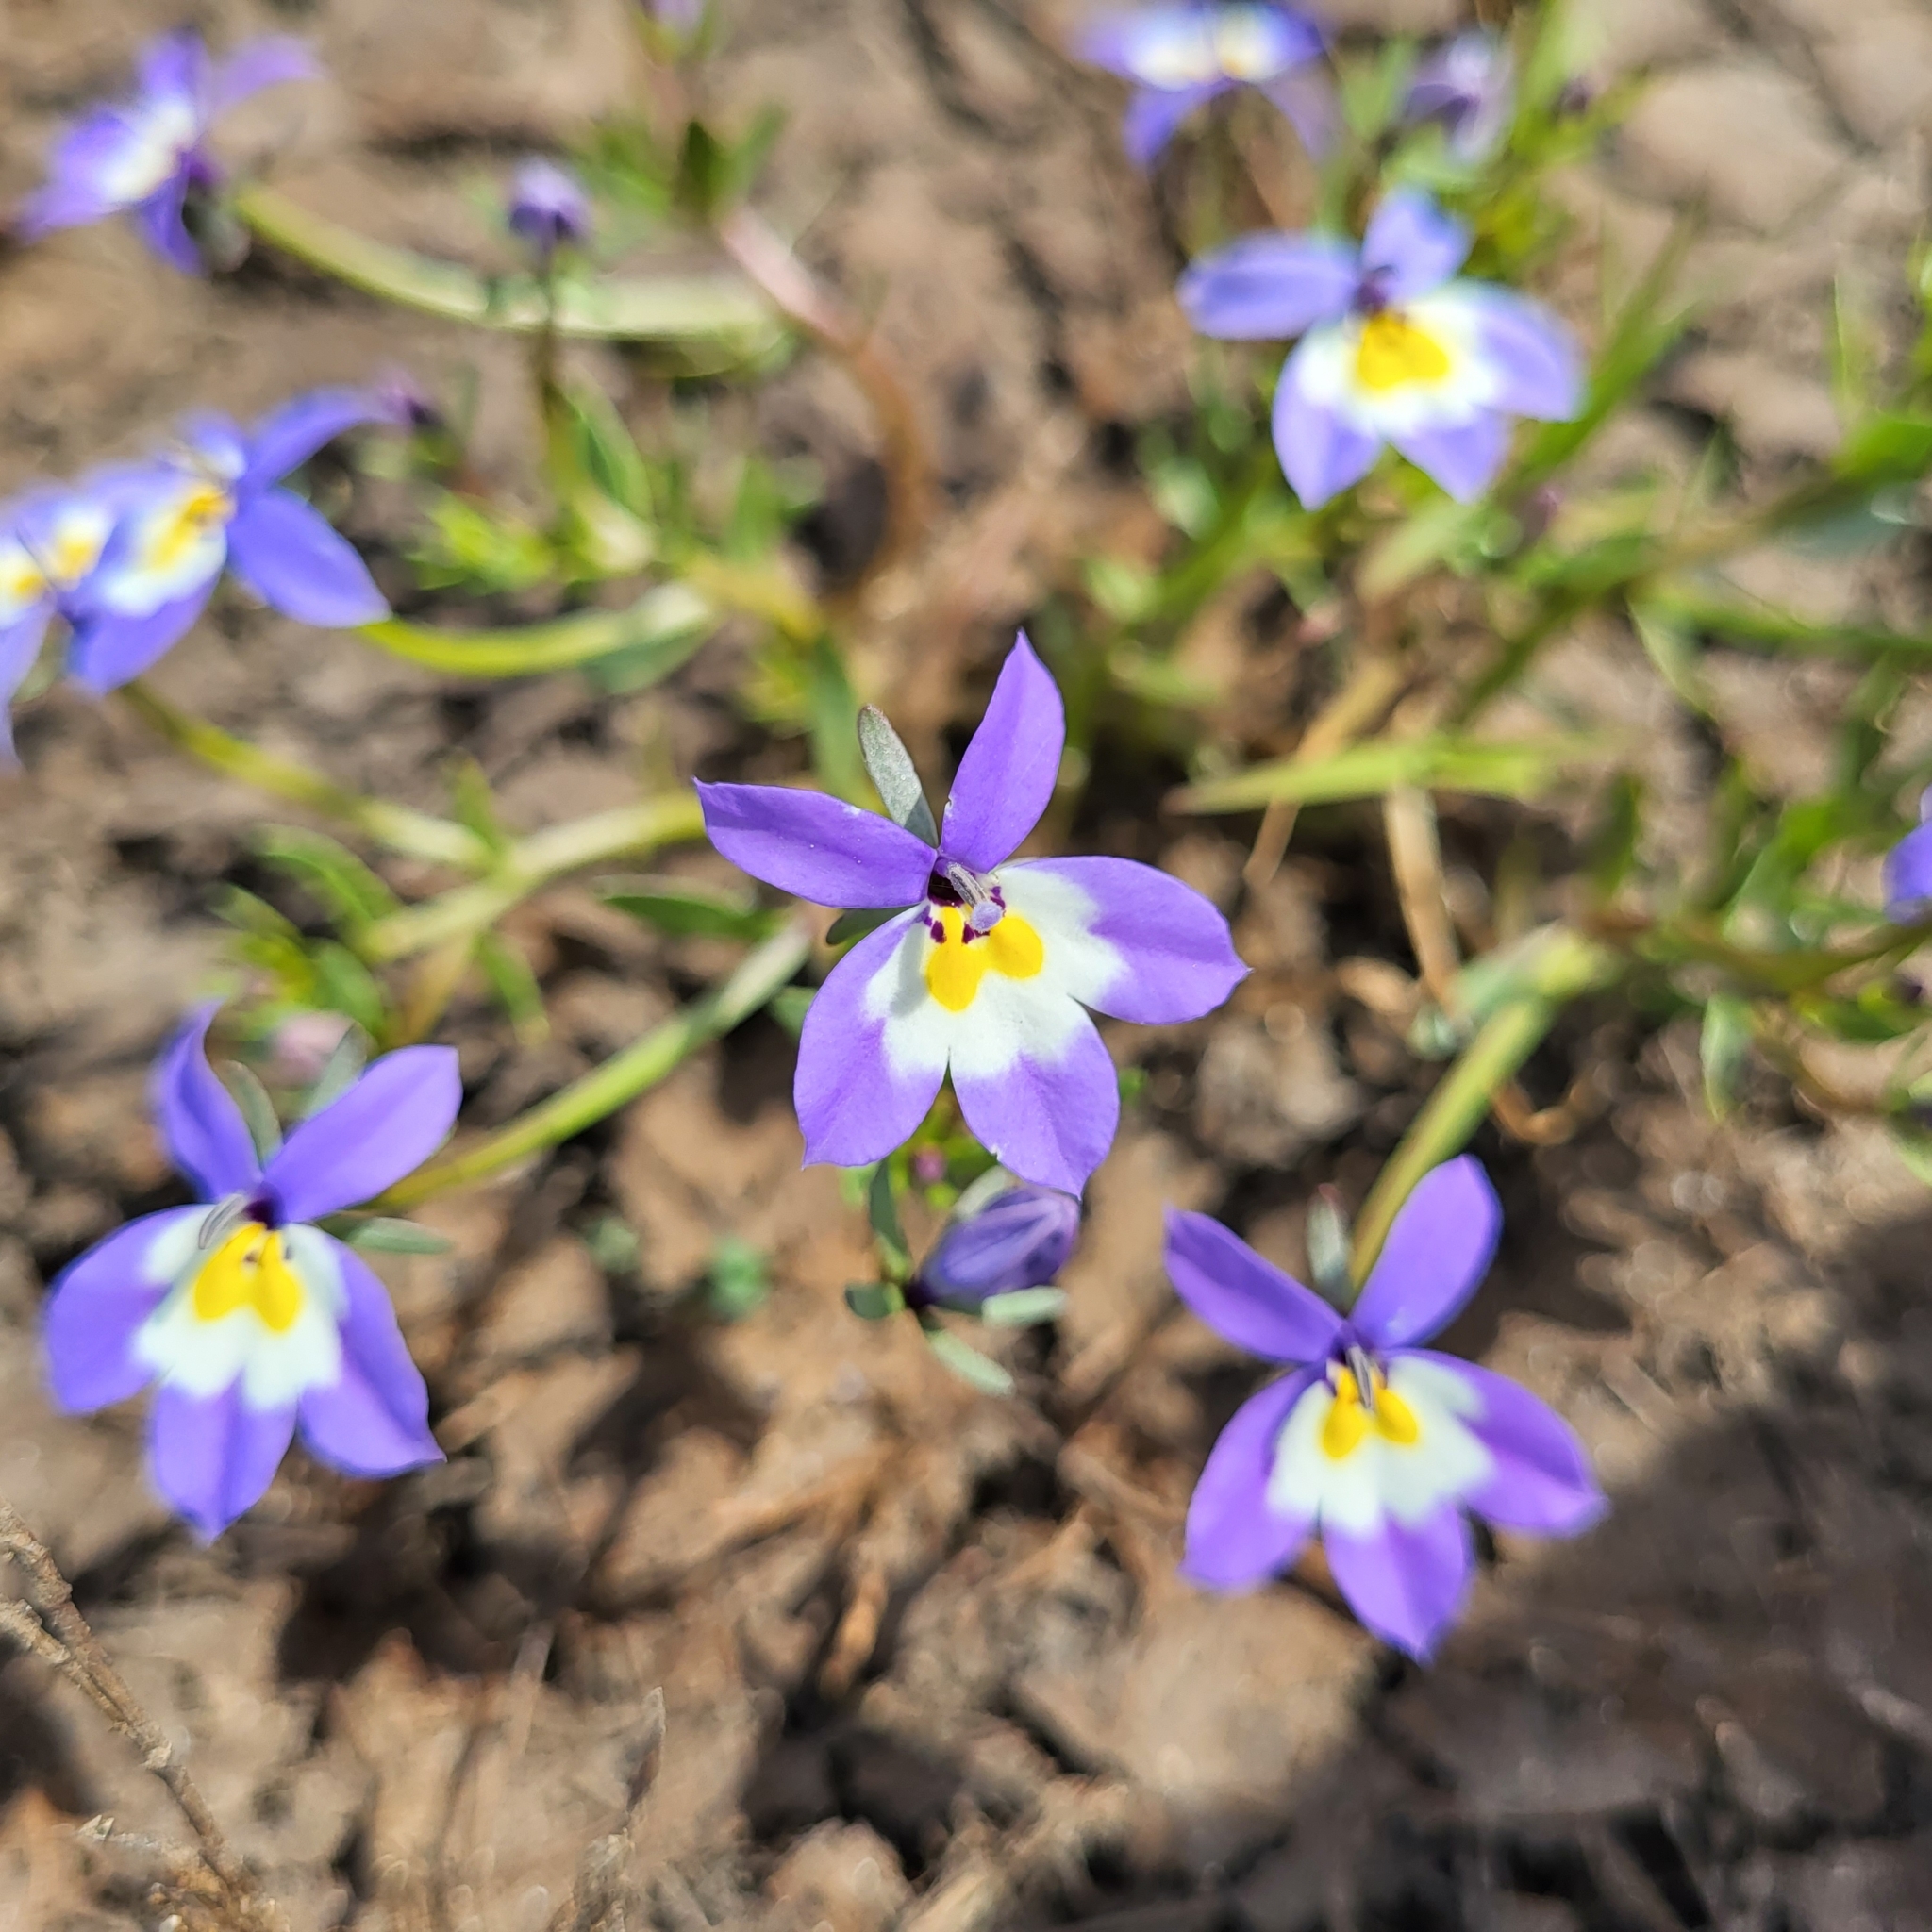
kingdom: Plantae
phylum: Tracheophyta
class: Magnoliopsida
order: Asterales
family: Campanulaceae
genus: Downingia
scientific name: Downingia pulchella
